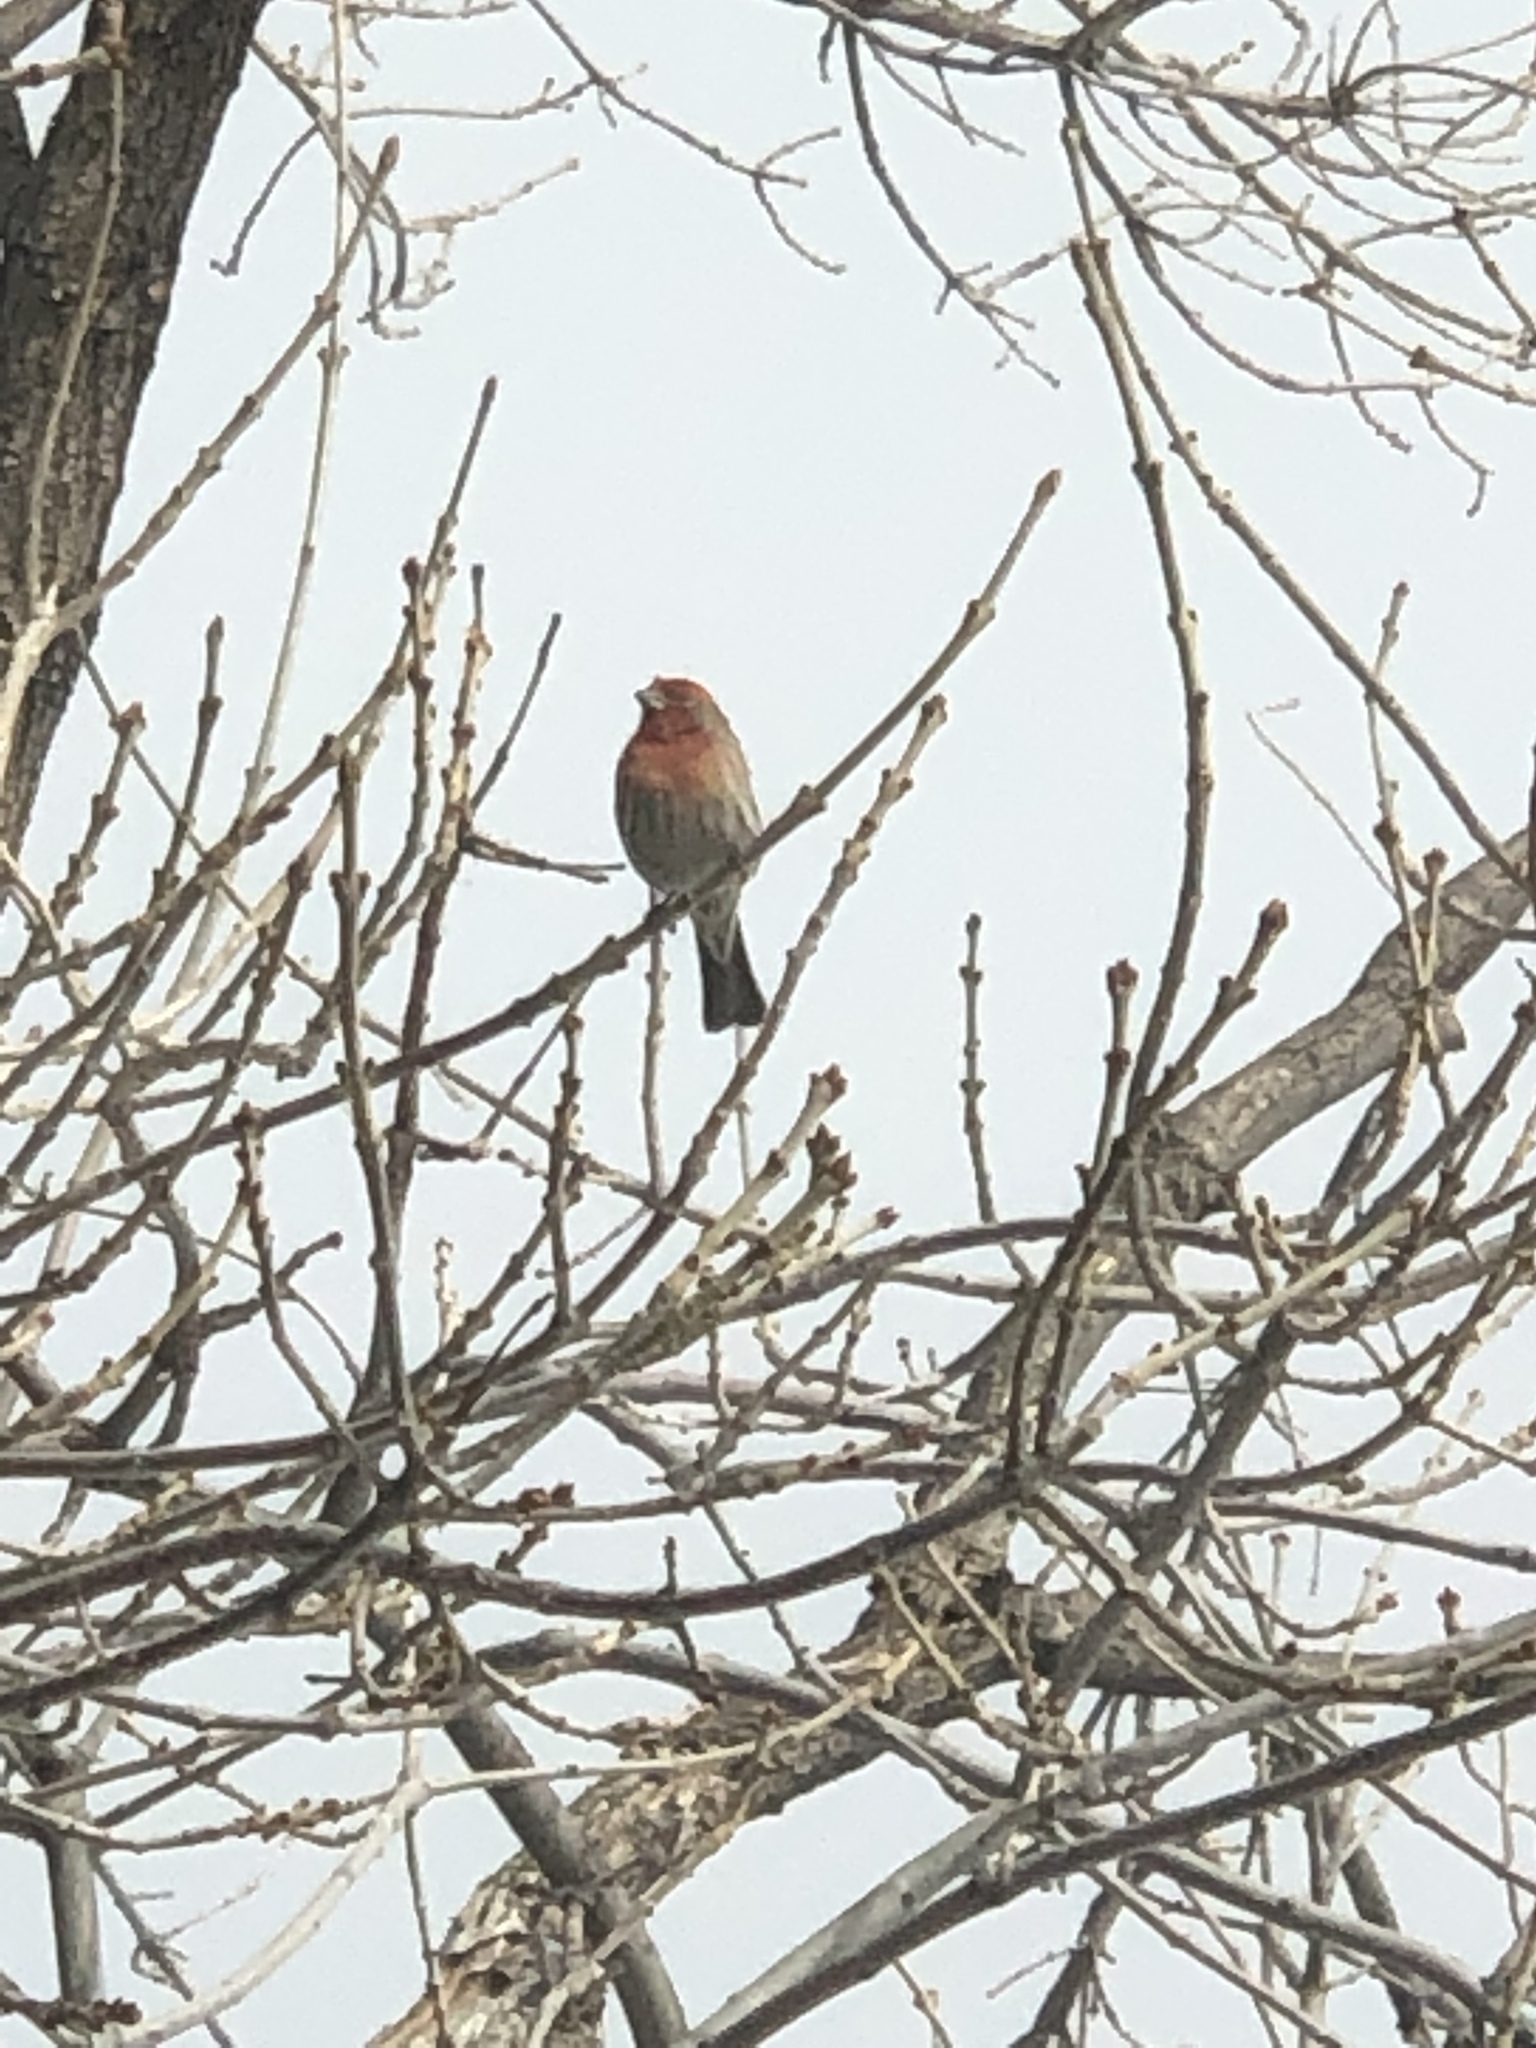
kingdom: Animalia
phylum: Chordata
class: Aves
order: Passeriformes
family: Fringillidae
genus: Haemorhous
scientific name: Haemorhous mexicanus
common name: House finch
